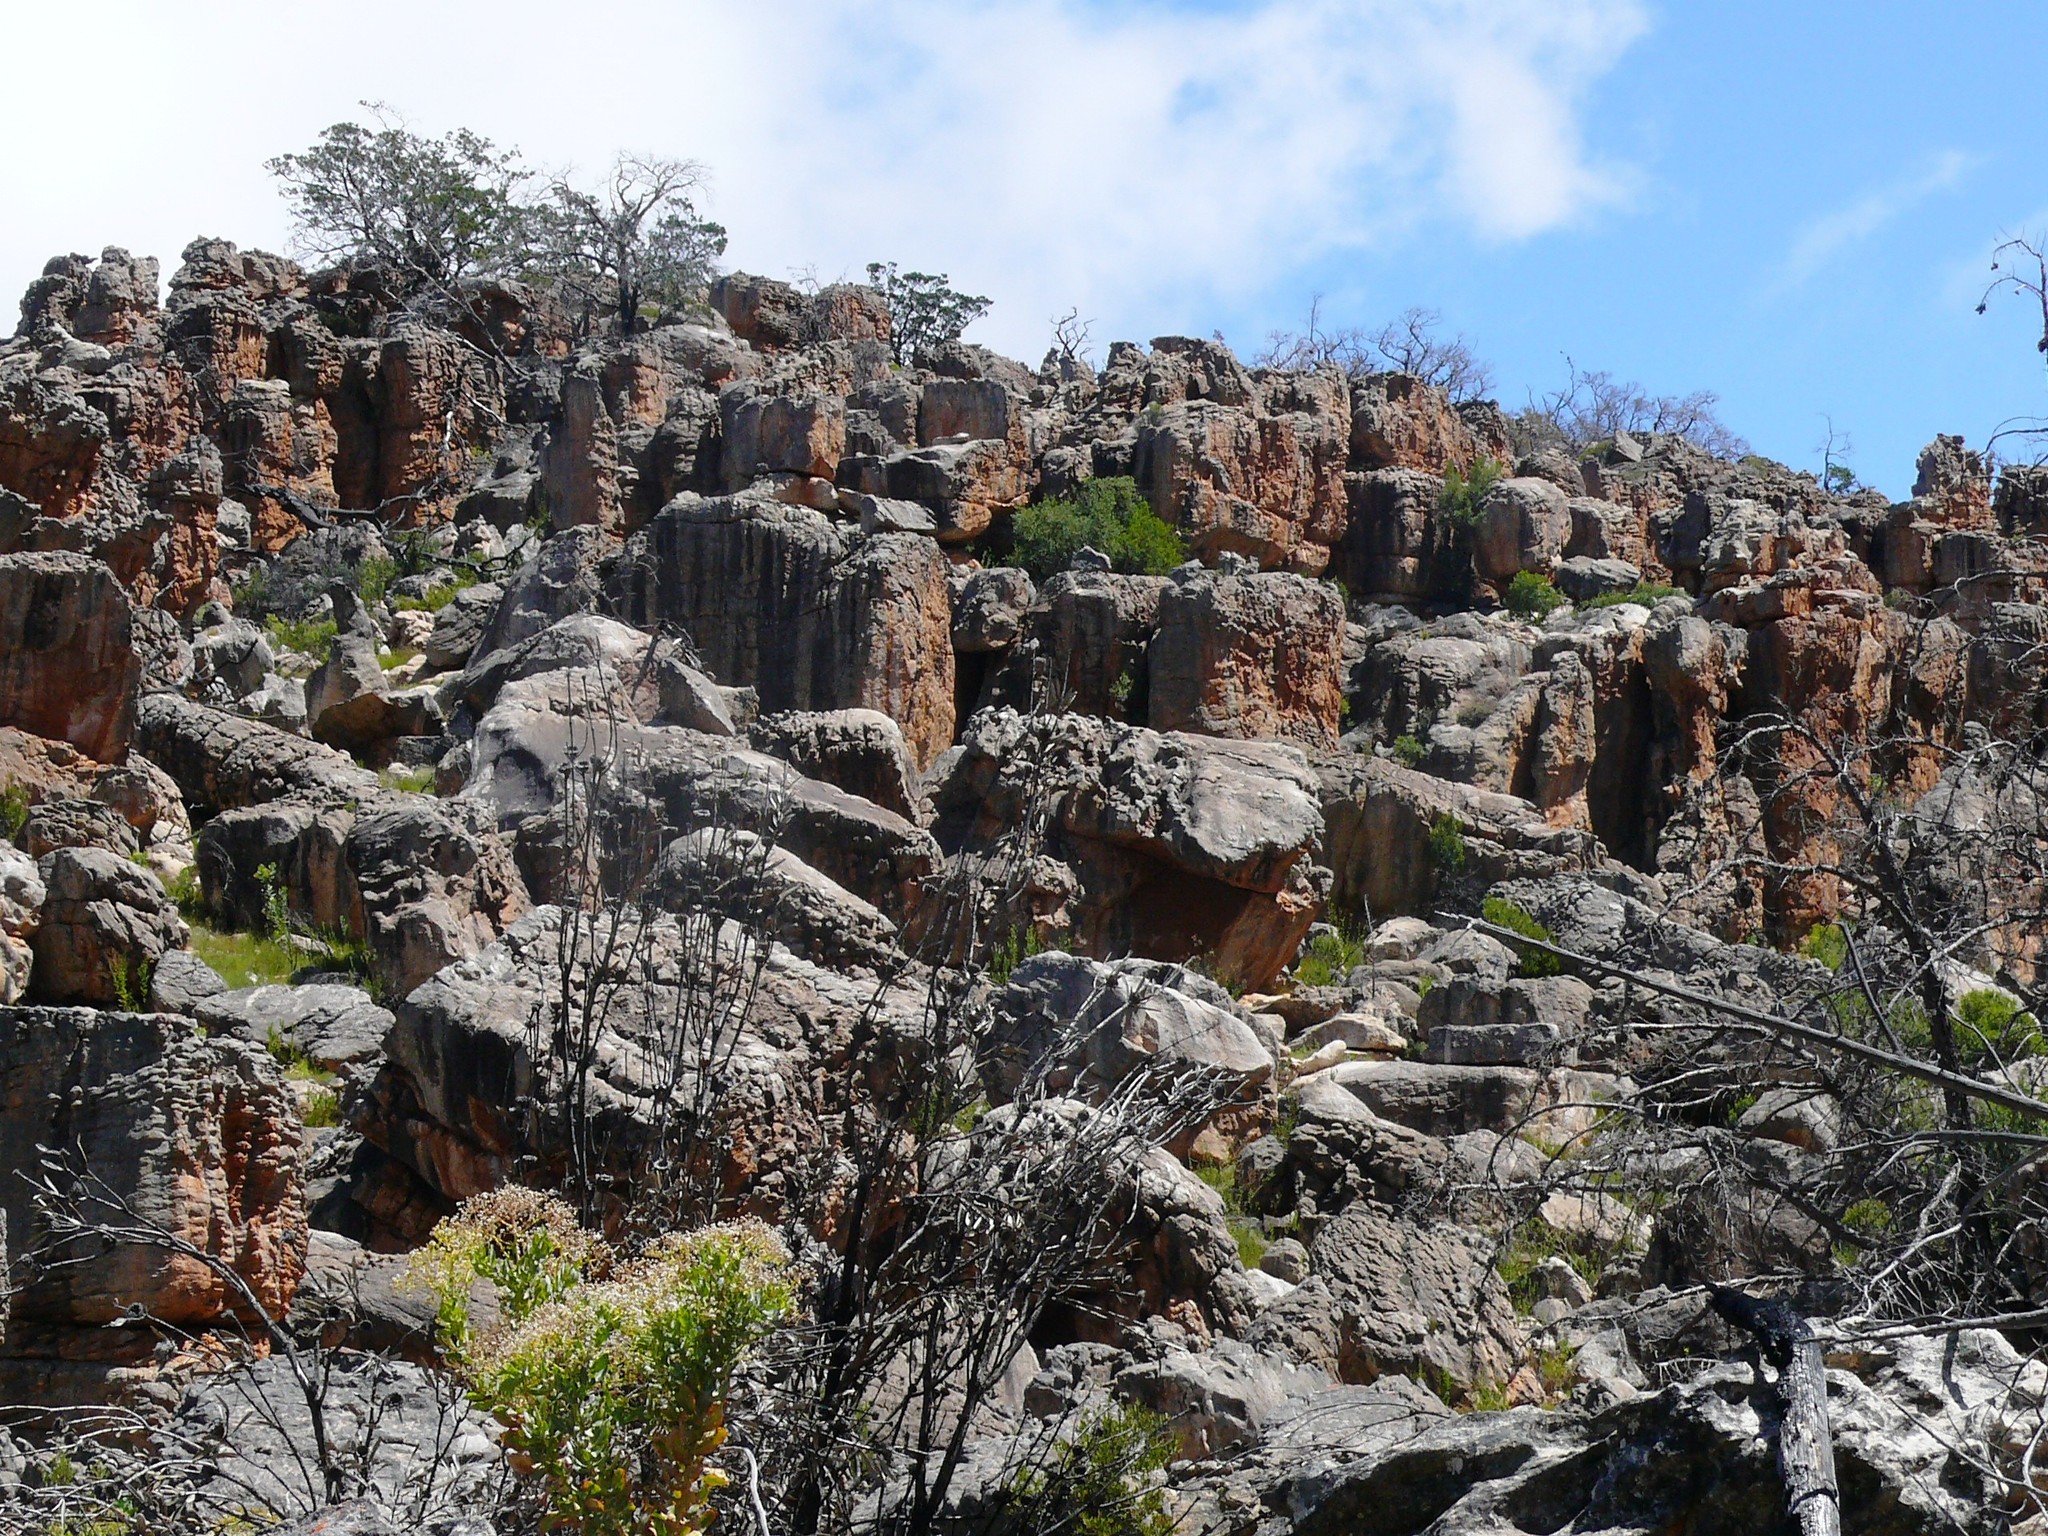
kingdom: Plantae
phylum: Tracheophyta
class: Pinopsida
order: Pinales
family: Cupressaceae
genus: Widdringtonia
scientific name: Widdringtonia nodiflora
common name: Cape cypress
